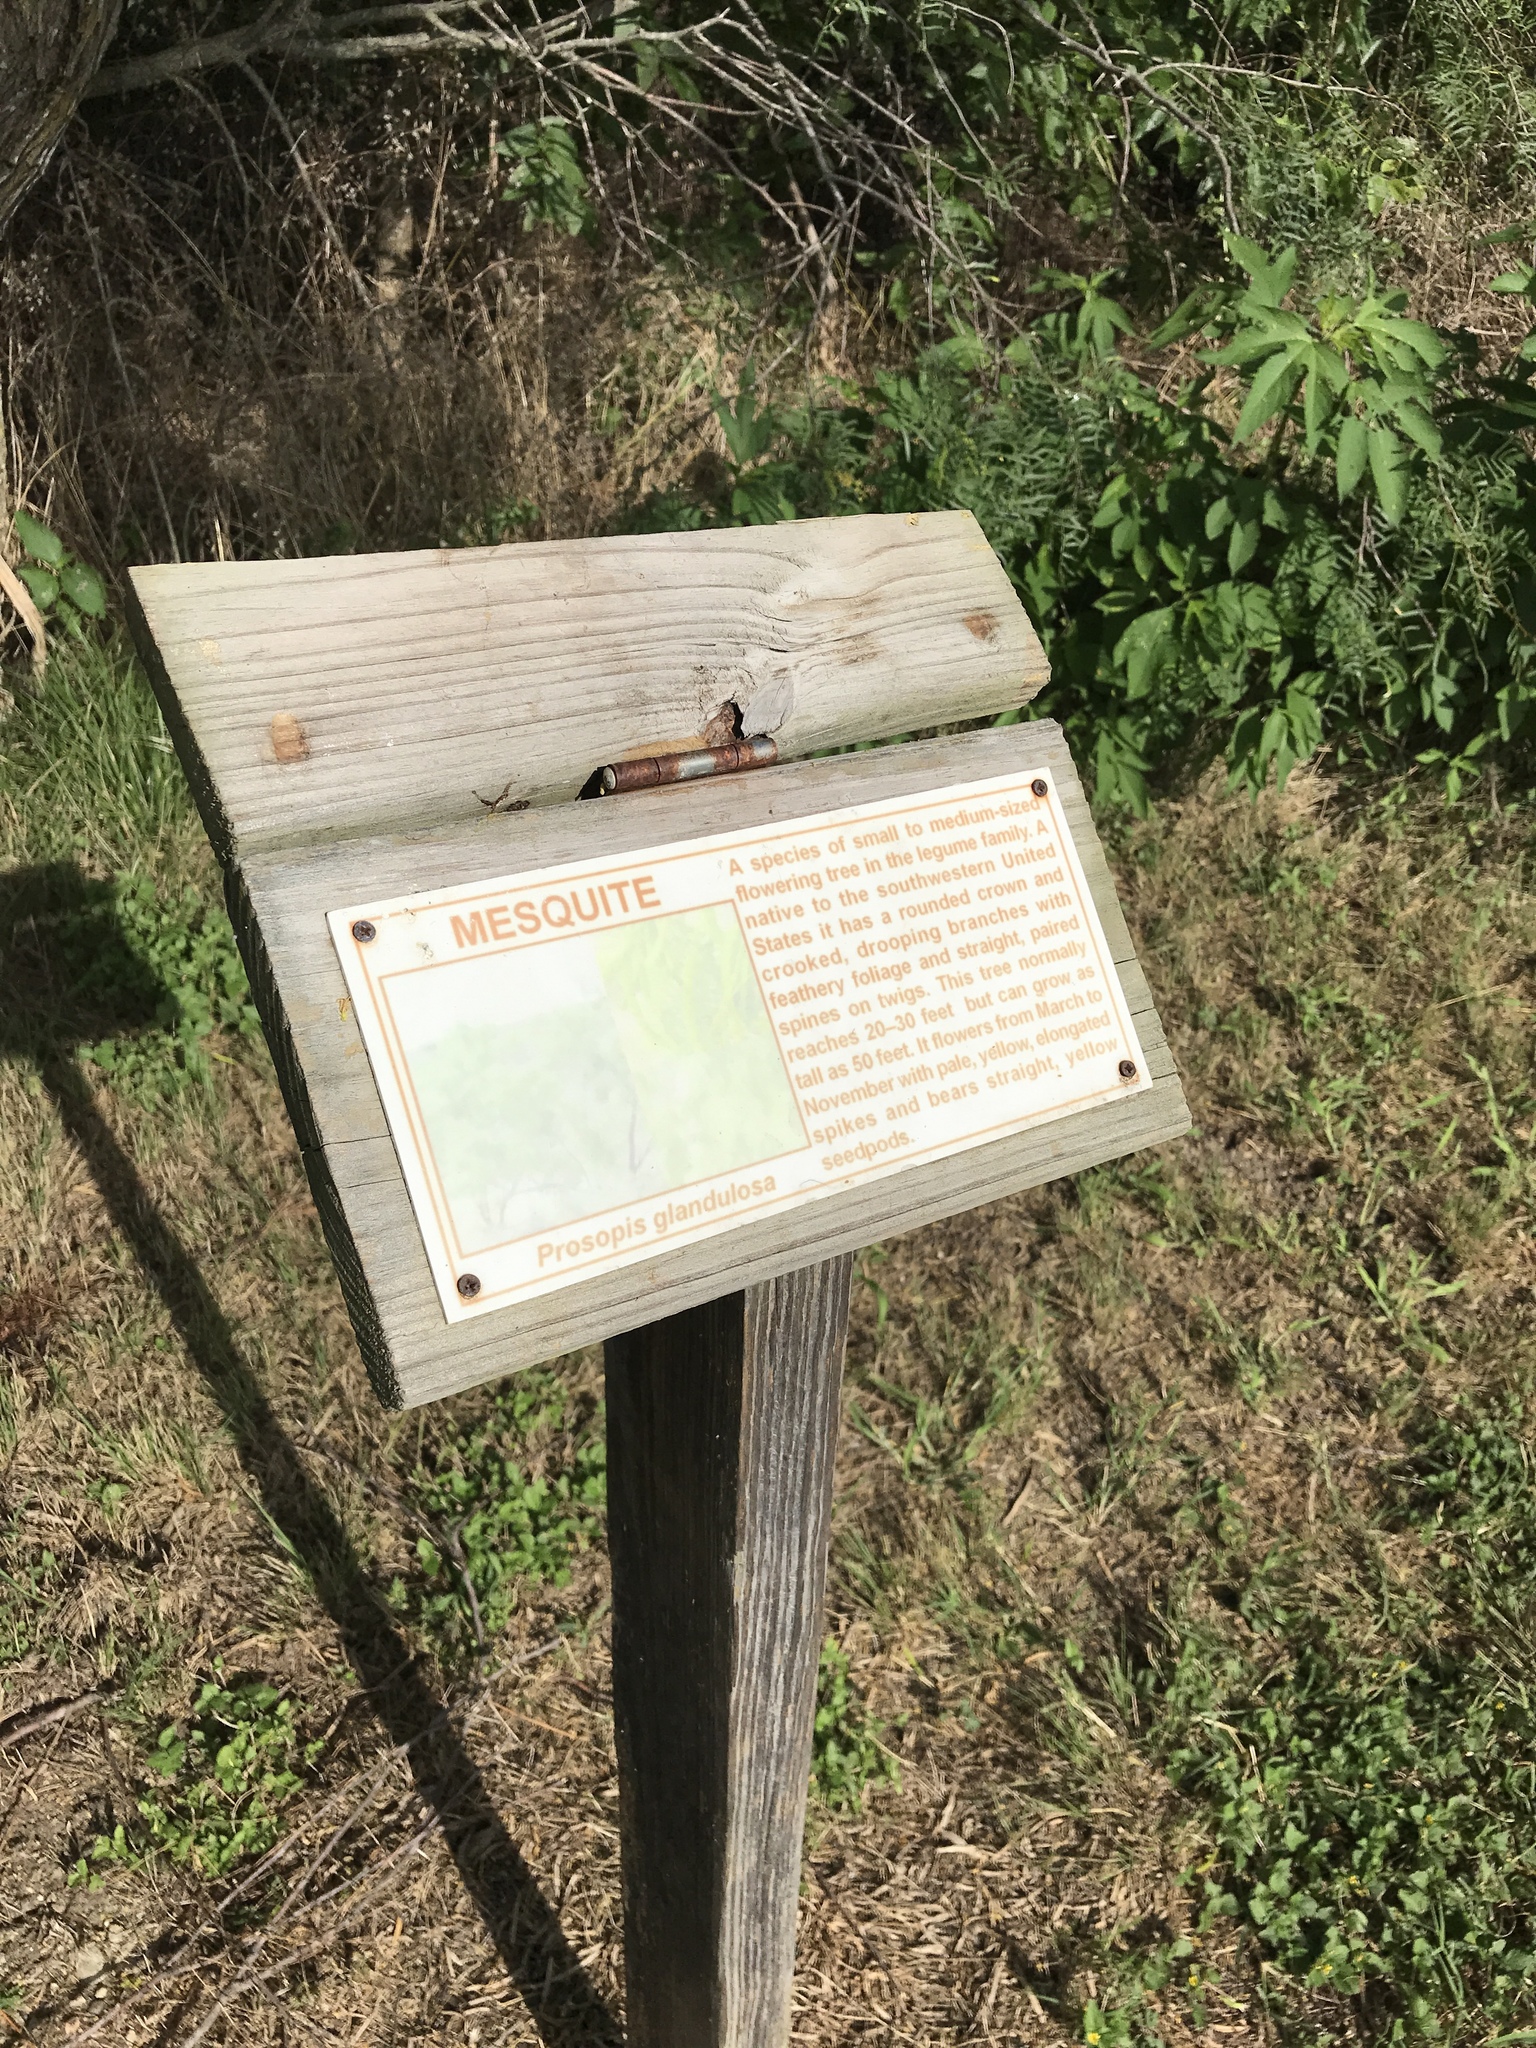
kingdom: Plantae
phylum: Tracheophyta
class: Magnoliopsida
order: Fabales
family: Fabaceae
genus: Prosopis
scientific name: Prosopis glandulosa
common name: Honey mesquite
